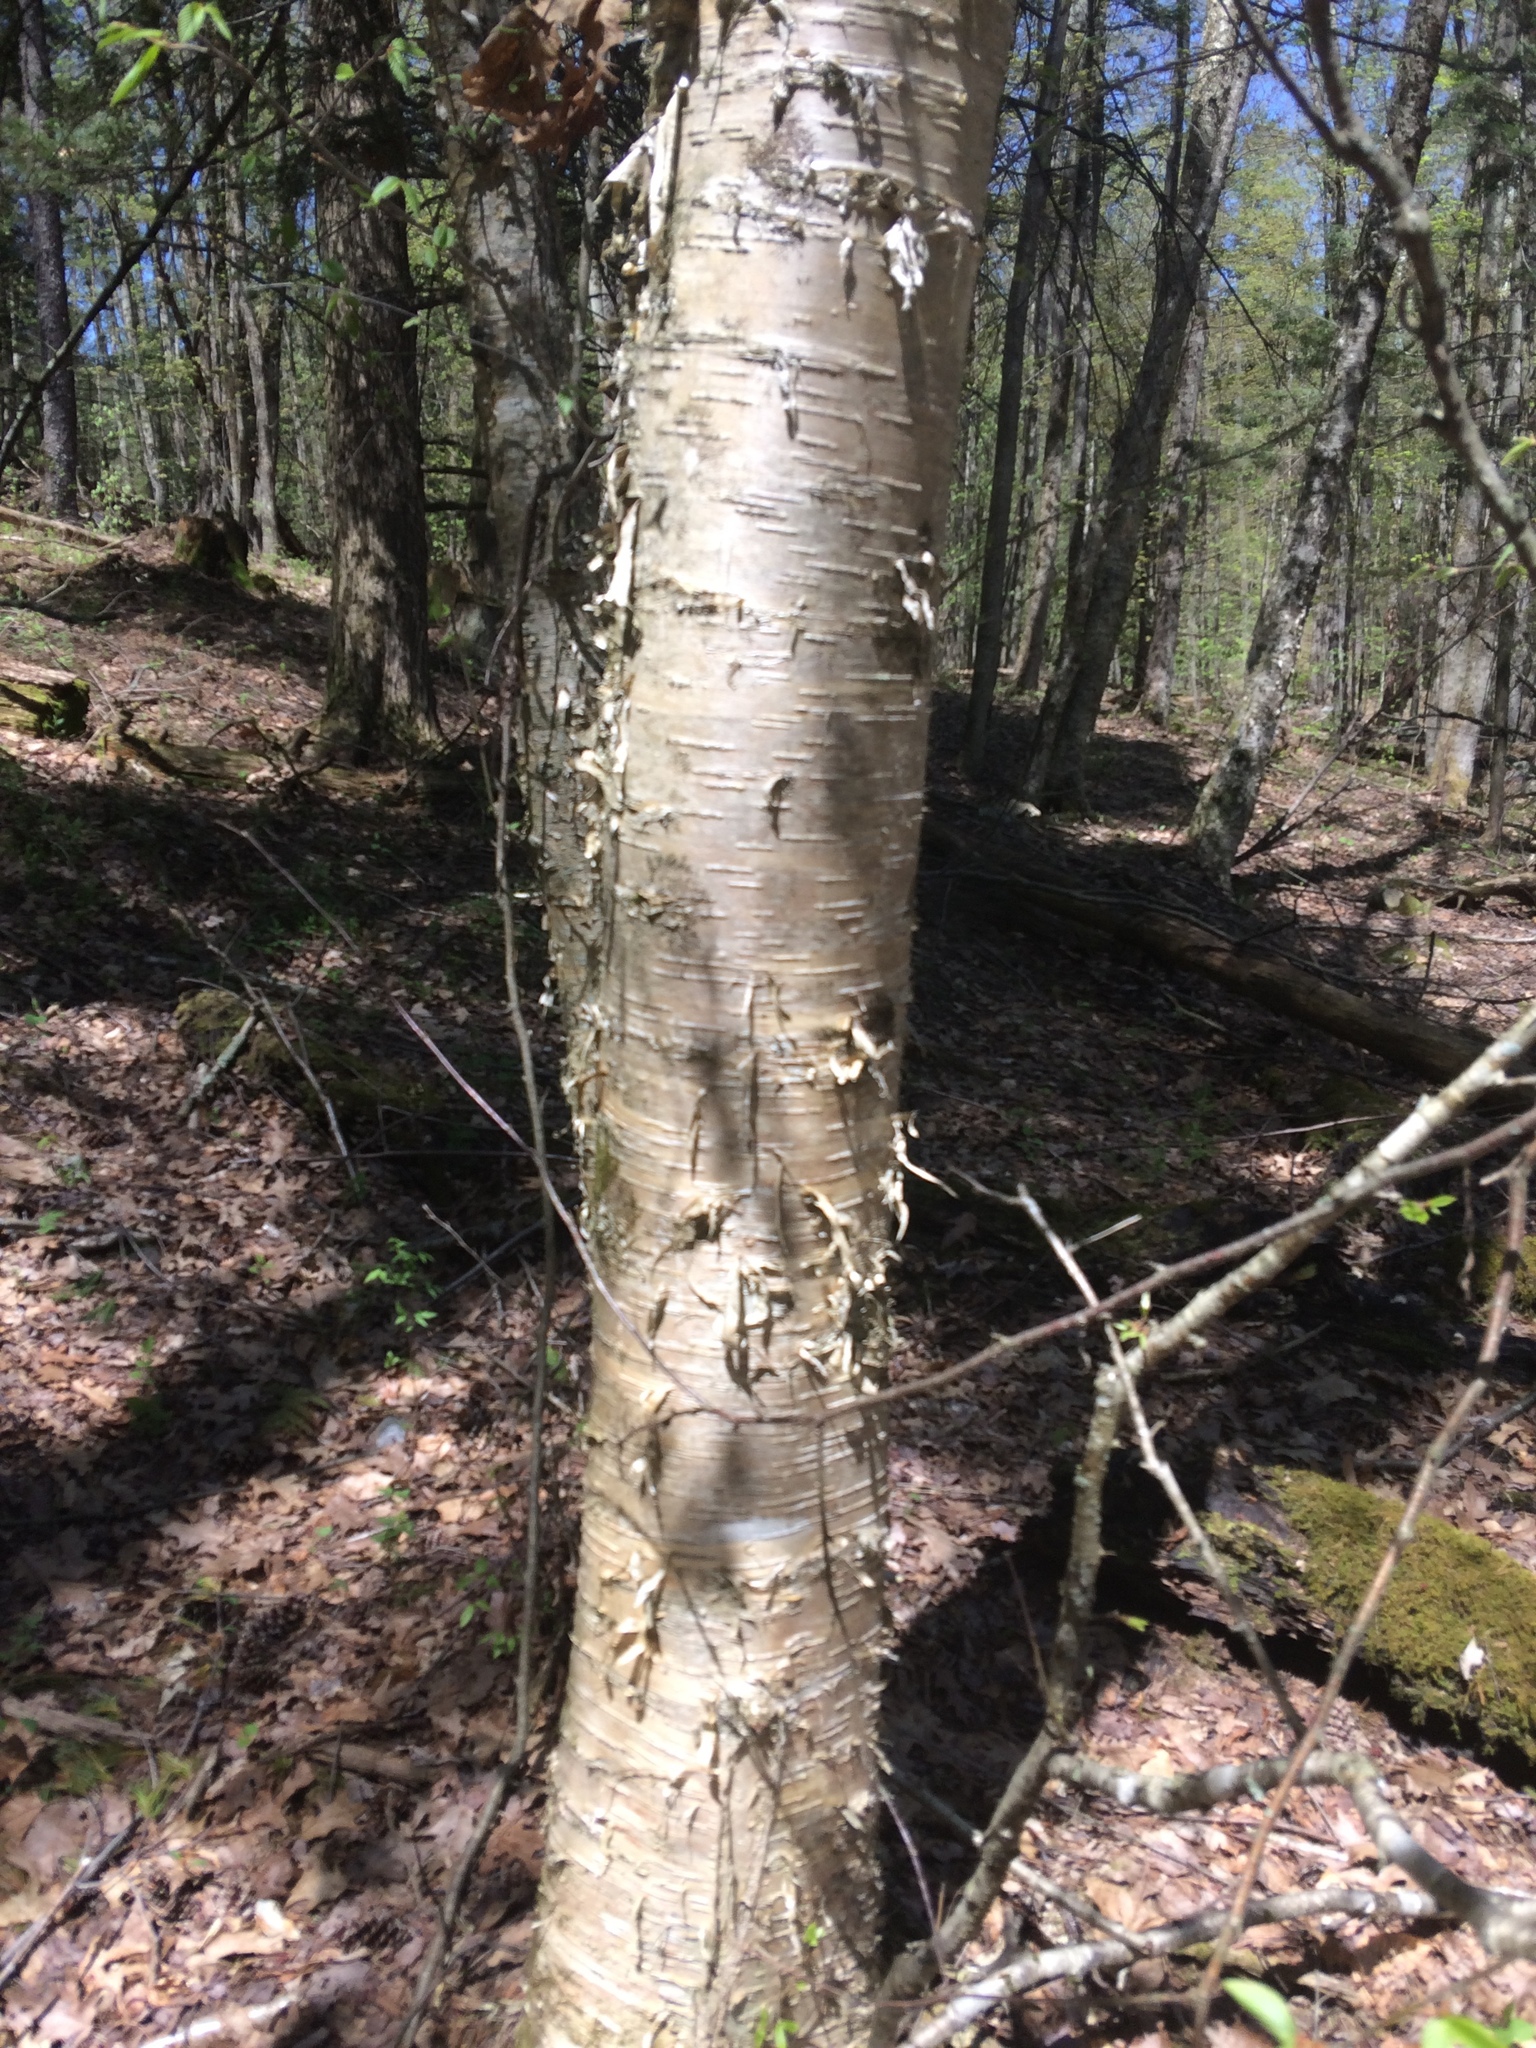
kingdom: Plantae
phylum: Tracheophyta
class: Magnoliopsida
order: Fagales
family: Betulaceae
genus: Betula
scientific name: Betula alleghaniensis
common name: Yellow birch
